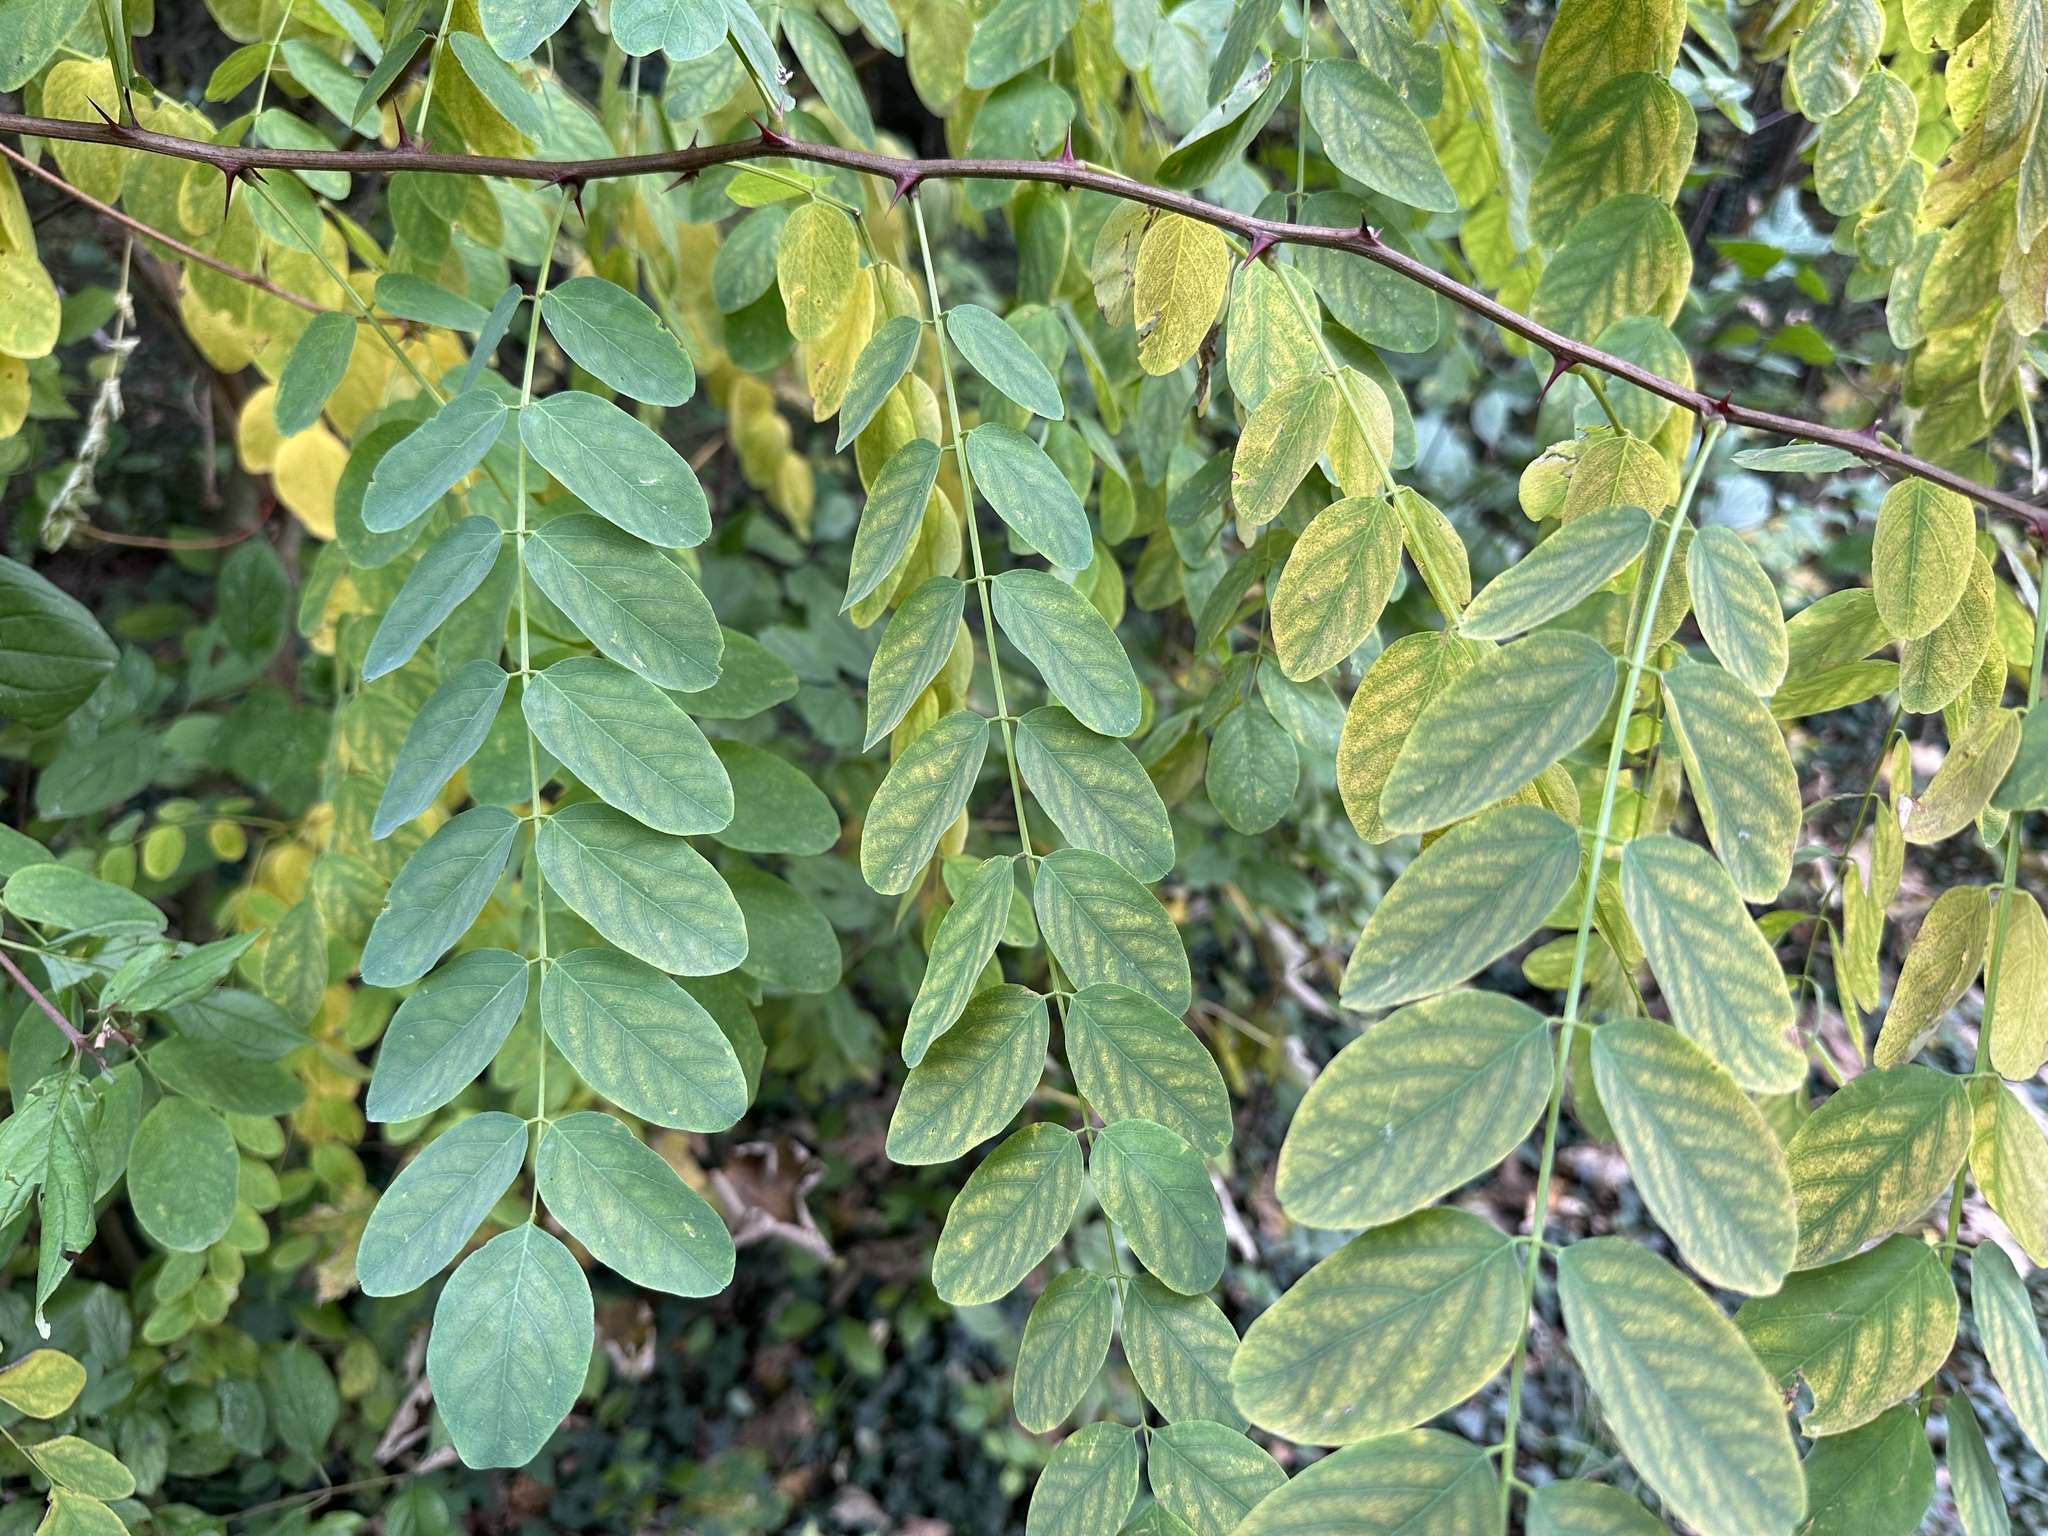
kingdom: Plantae
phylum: Tracheophyta
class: Magnoliopsida
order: Fabales
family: Fabaceae
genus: Robinia
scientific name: Robinia pseudoacacia
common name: Black locust
